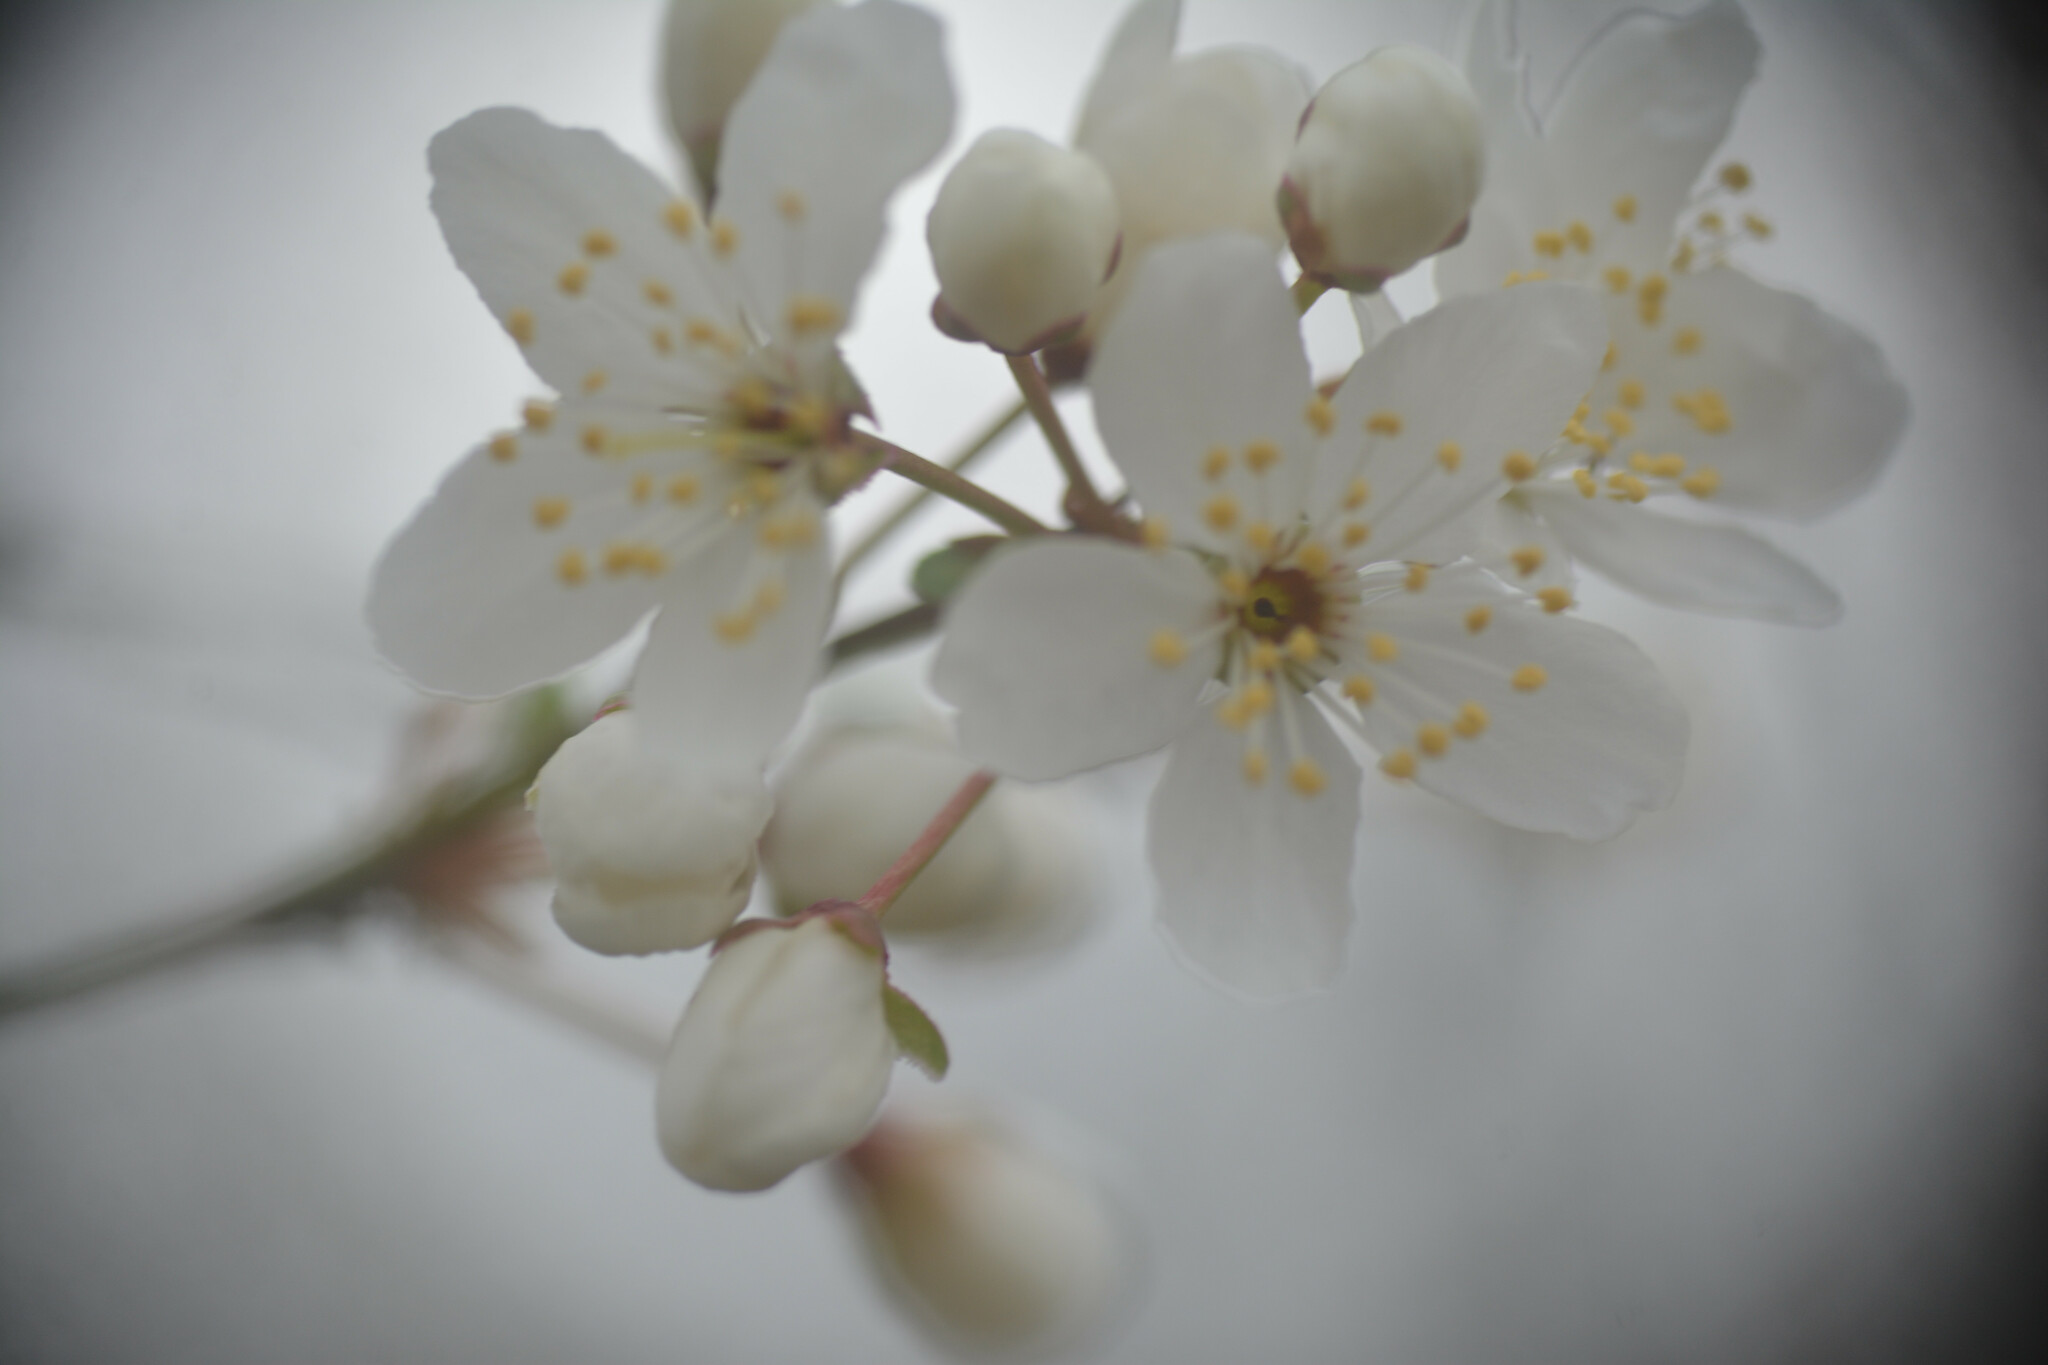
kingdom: Plantae
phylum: Tracheophyta
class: Magnoliopsida
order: Rosales
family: Rosaceae
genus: Prunus
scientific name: Prunus cerasifera
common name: Cherry plum
